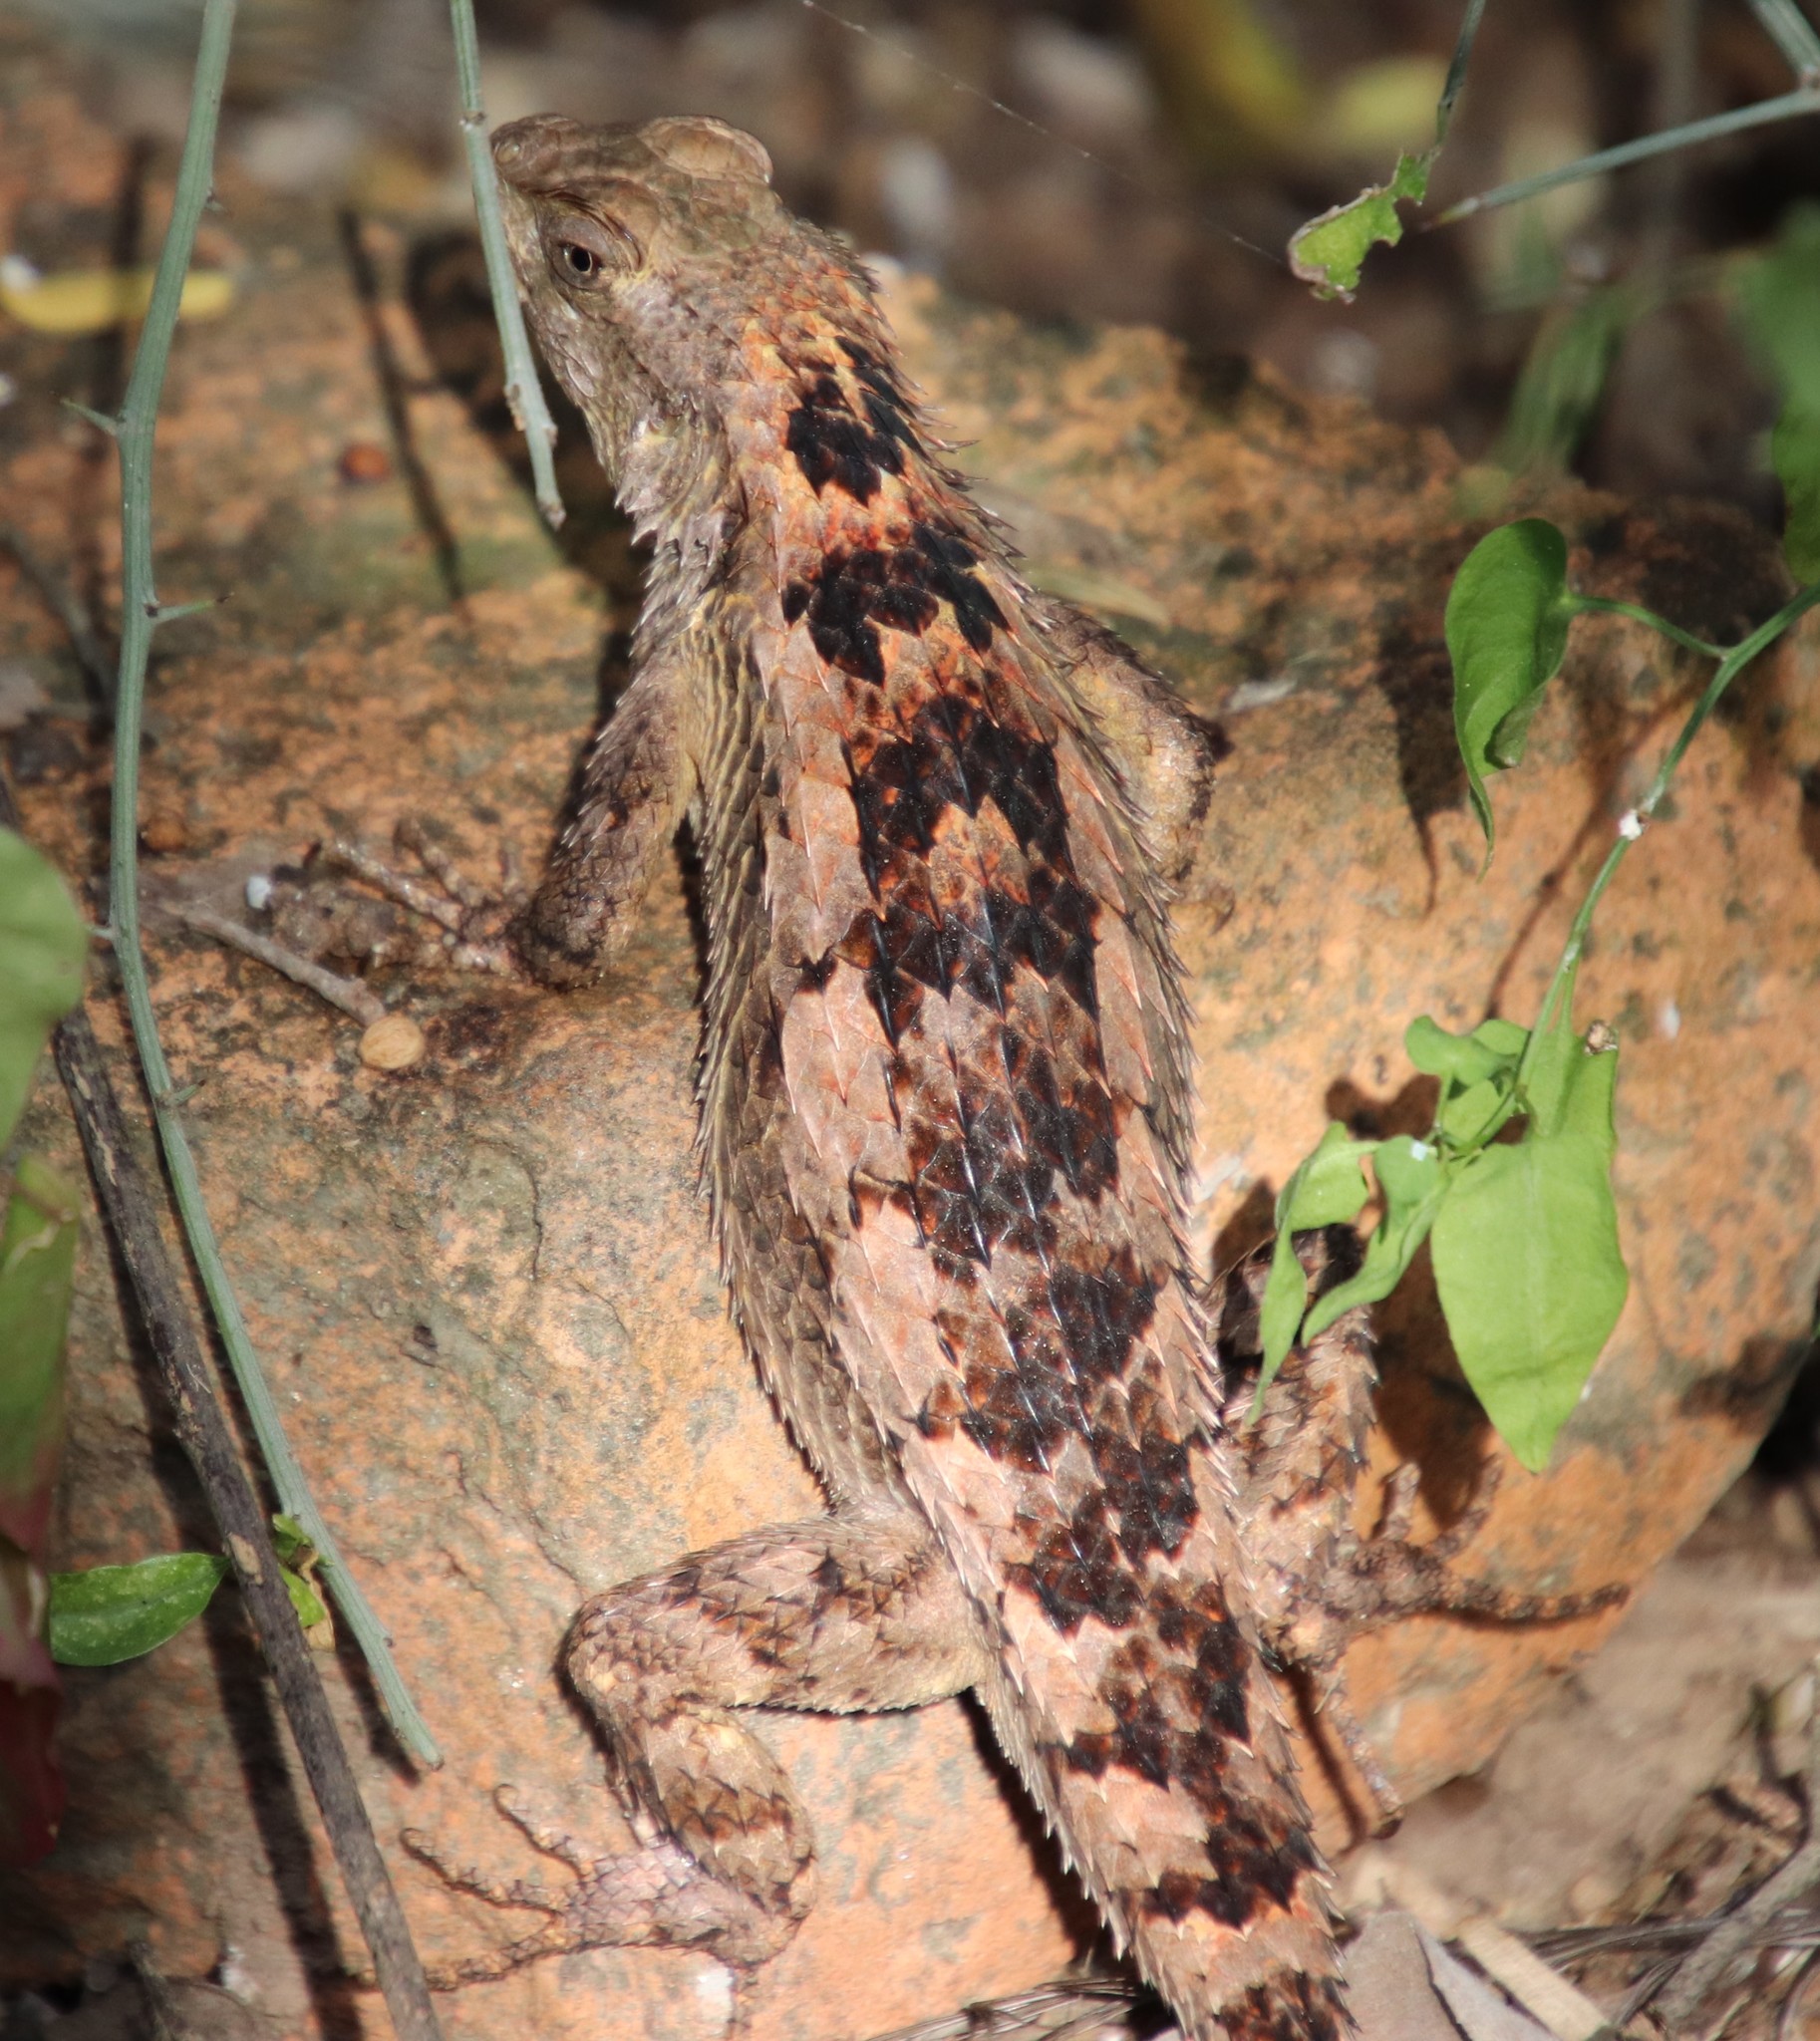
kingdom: Animalia
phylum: Chordata
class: Squamata
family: Phrynosomatidae
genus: Sceloporus
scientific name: Sceloporus olivaceus
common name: Texas spiny lizard
